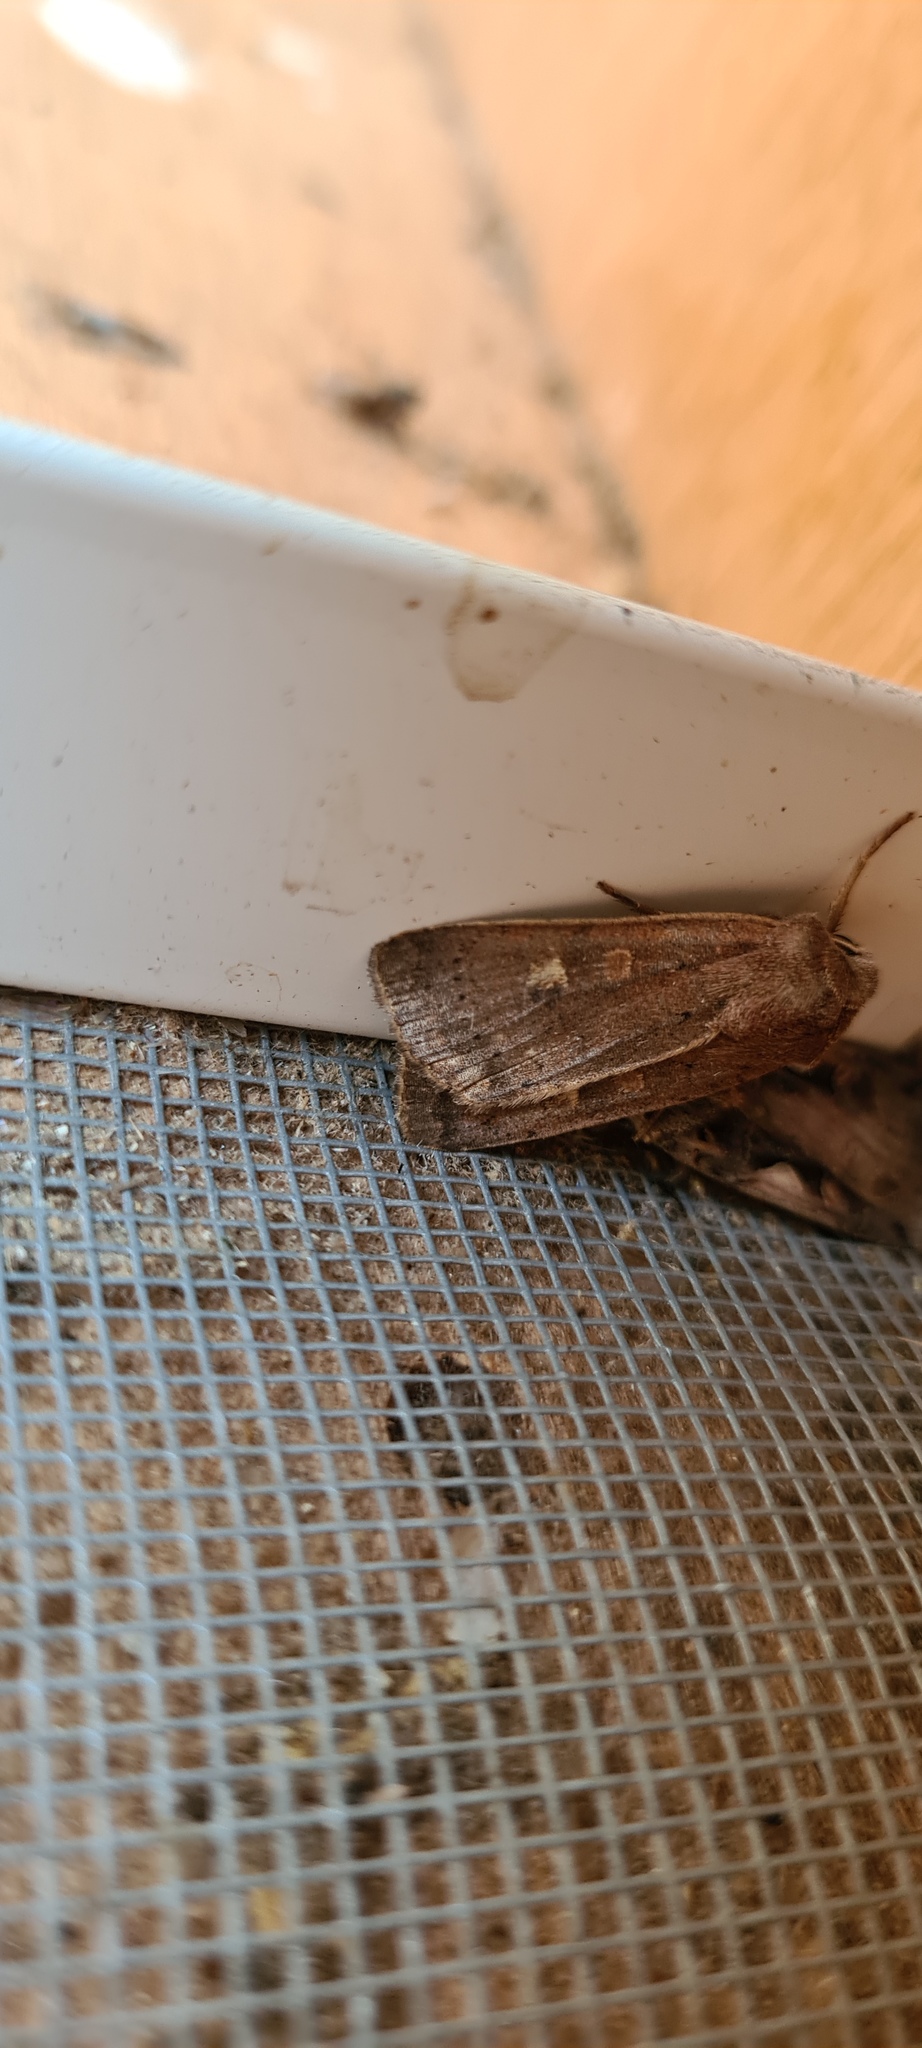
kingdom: Animalia
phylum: Arthropoda
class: Insecta
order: Lepidoptera
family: Noctuidae
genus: Xestia
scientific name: Xestia xanthographa
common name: Square-spot rustic
